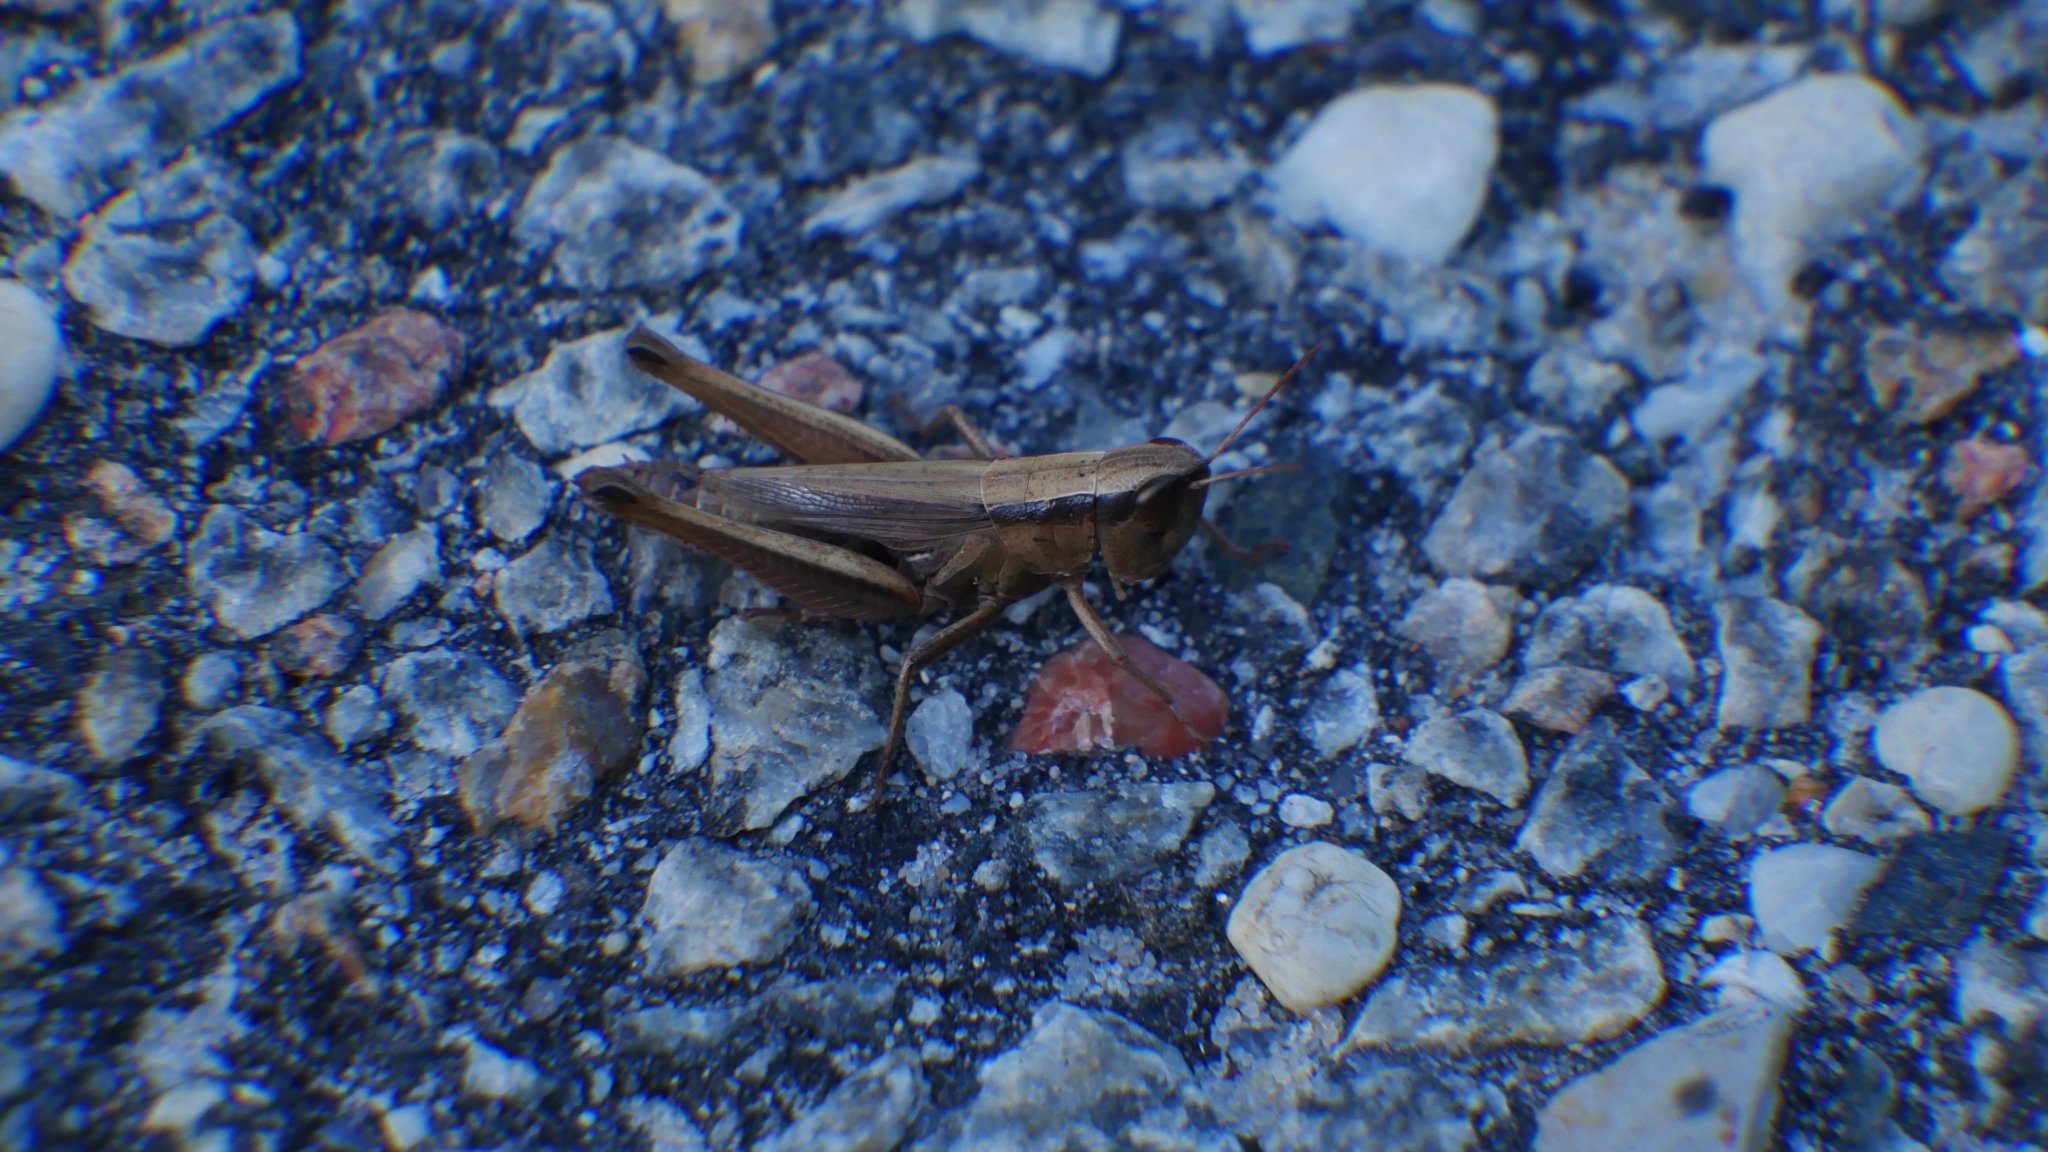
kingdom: Animalia
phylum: Arthropoda
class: Insecta
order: Orthoptera
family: Acrididae
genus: Dichromorpha
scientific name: Dichromorpha elegans
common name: Elegant grasshopper
